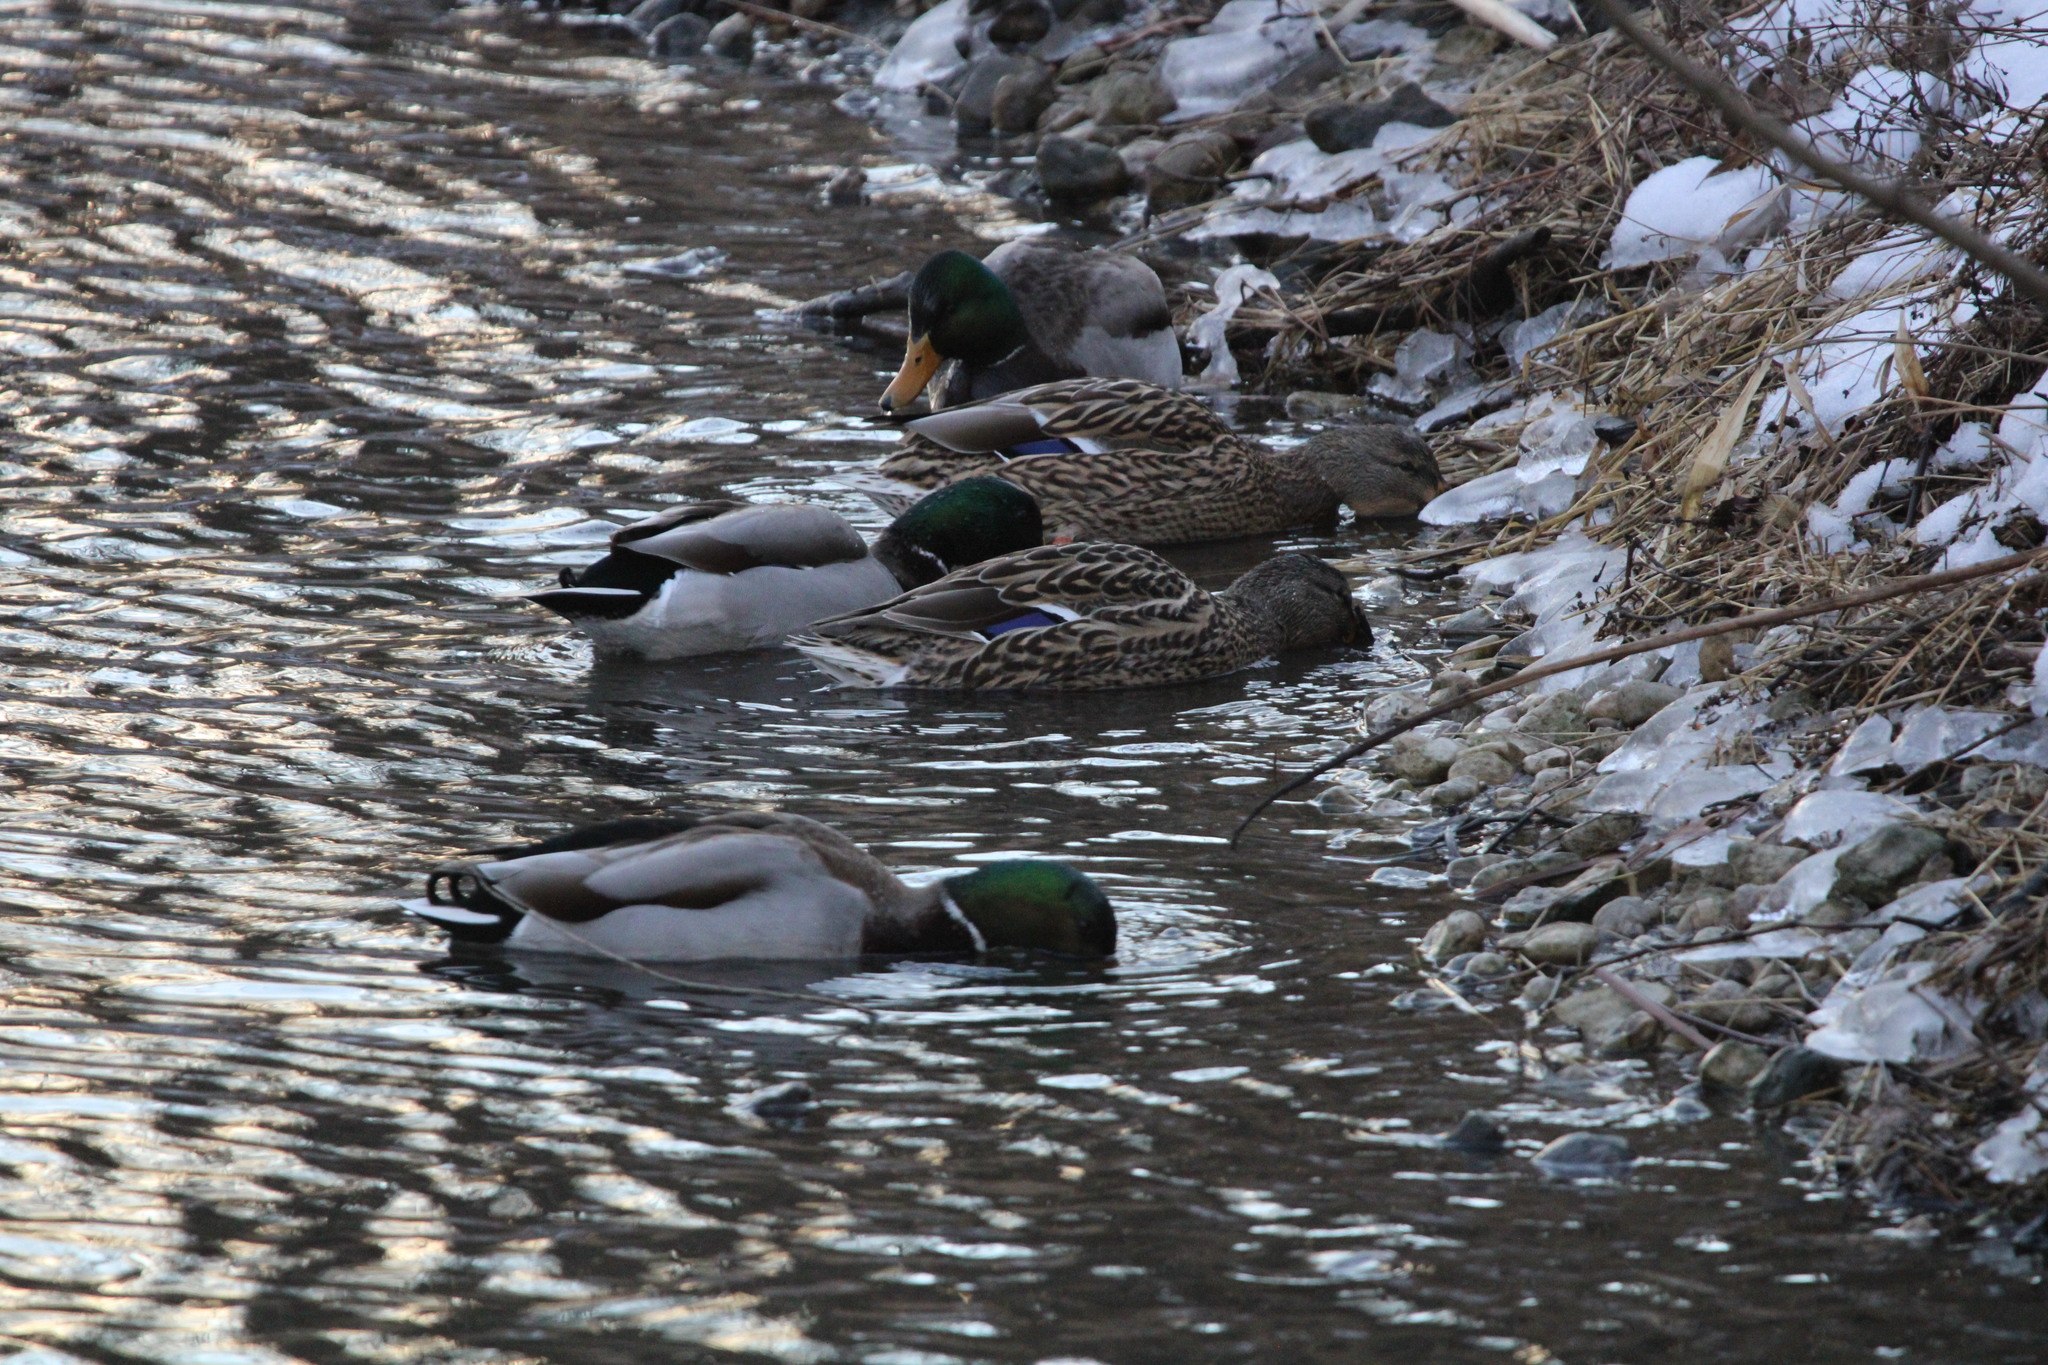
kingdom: Animalia
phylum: Chordata
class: Aves
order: Anseriformes
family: Anatidae
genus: Anas
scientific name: Anas platyrhynchos
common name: Mallard
